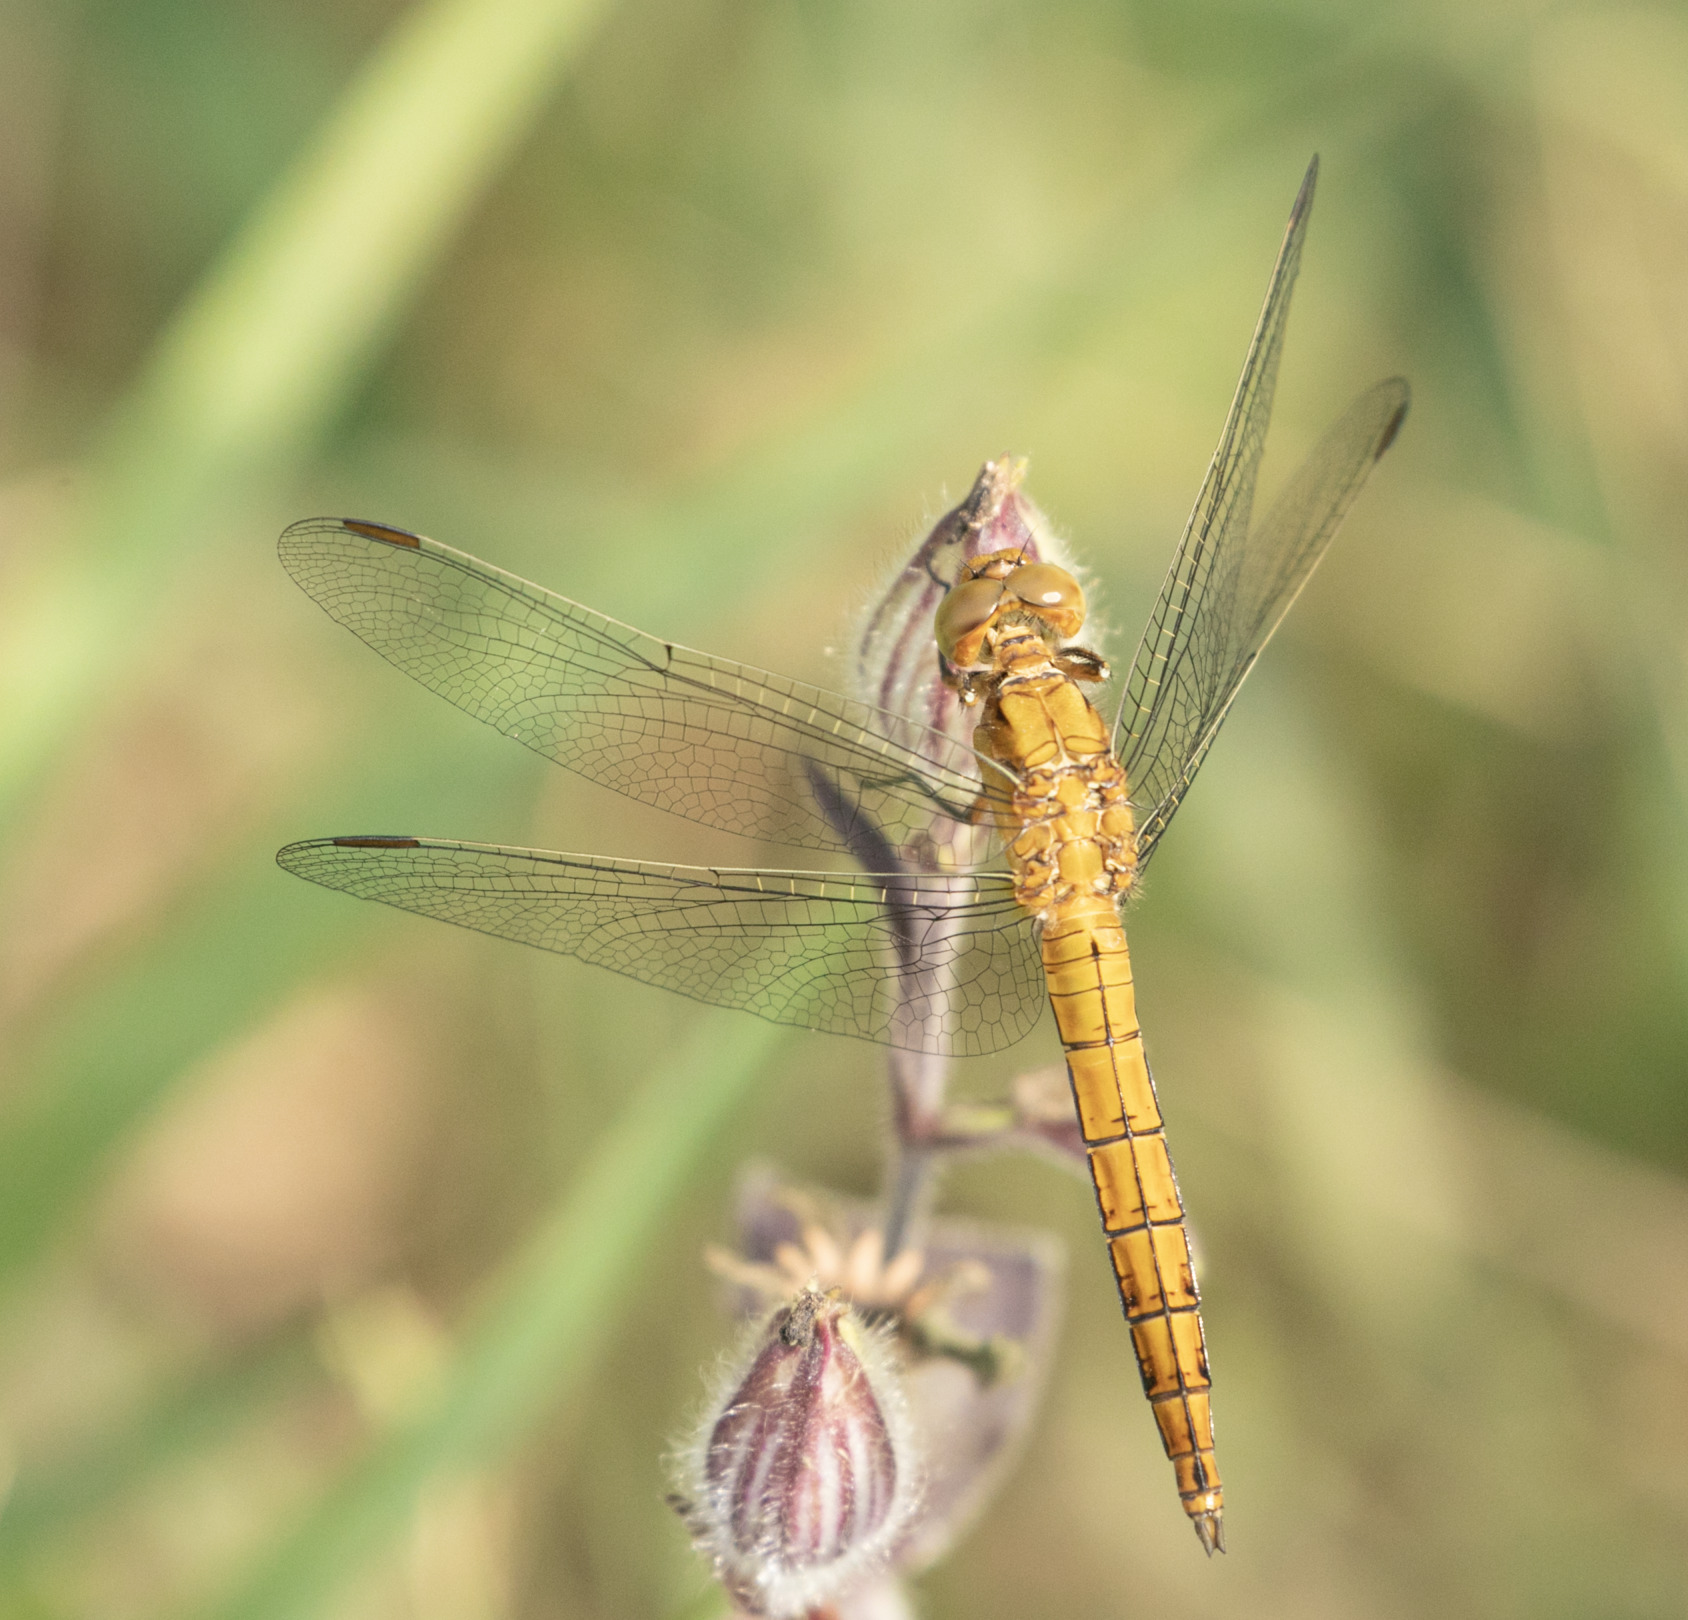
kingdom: Animalia
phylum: Arthropoda
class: Insecta
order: Odonata
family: Libellulidae
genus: Orthetrum
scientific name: Orthetrum coerulescens
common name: Keeled skimmer
